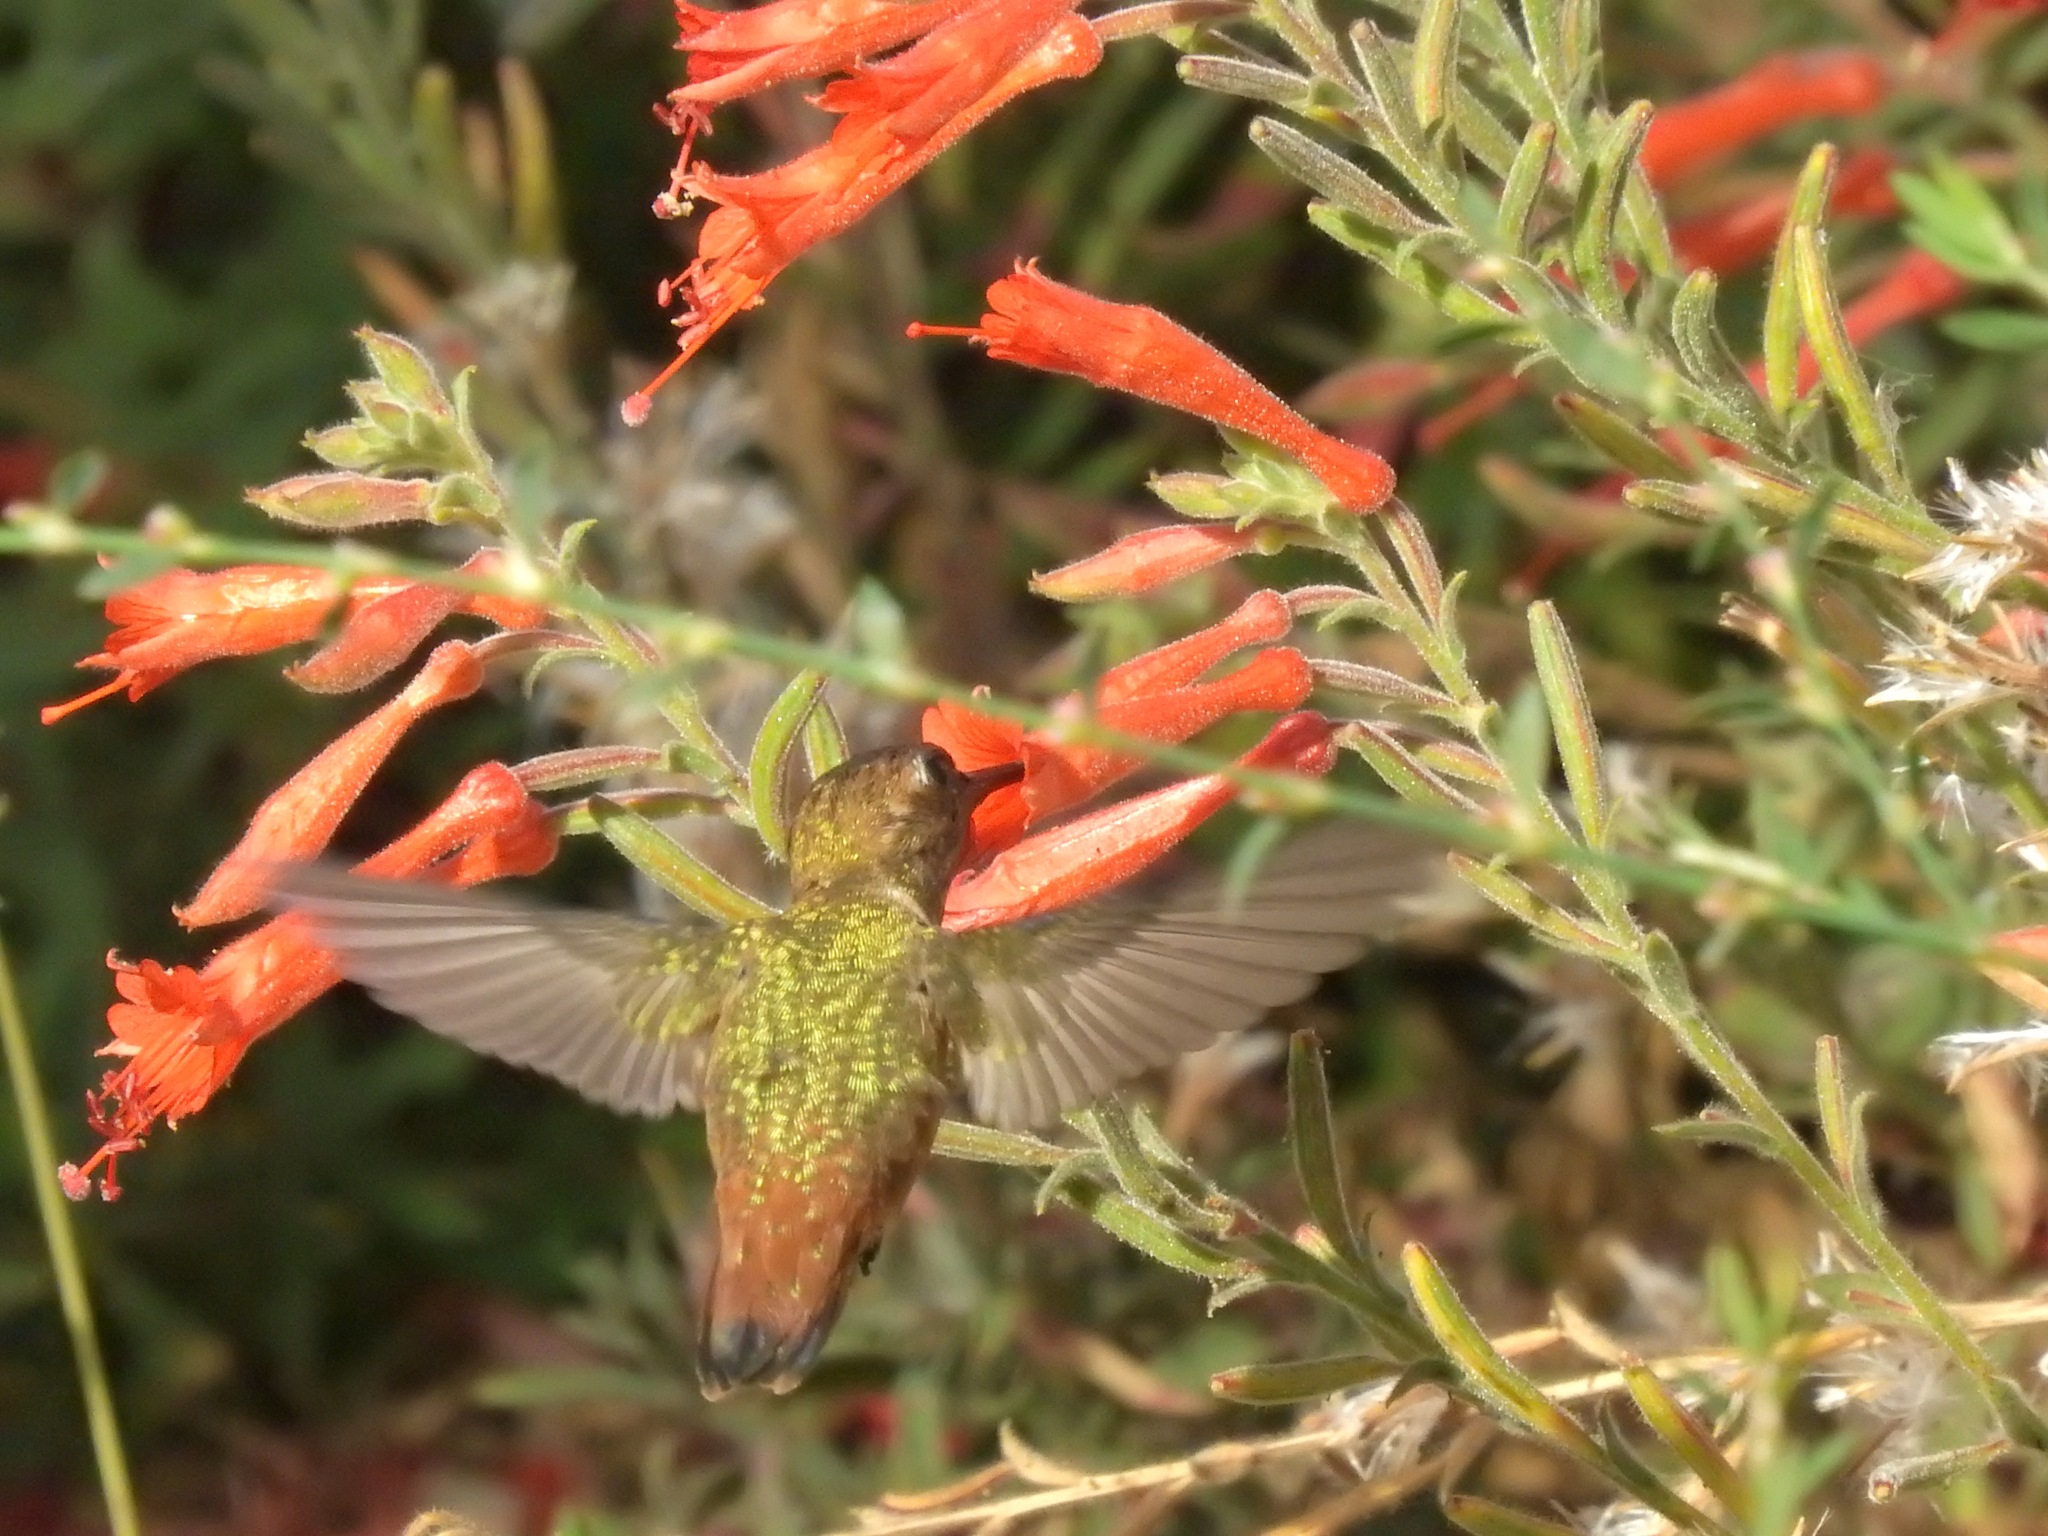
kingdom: Animalia
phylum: Chordata
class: Aves
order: Apodiformes
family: Trochilidae
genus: Selasphorus
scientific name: Selasphorus
